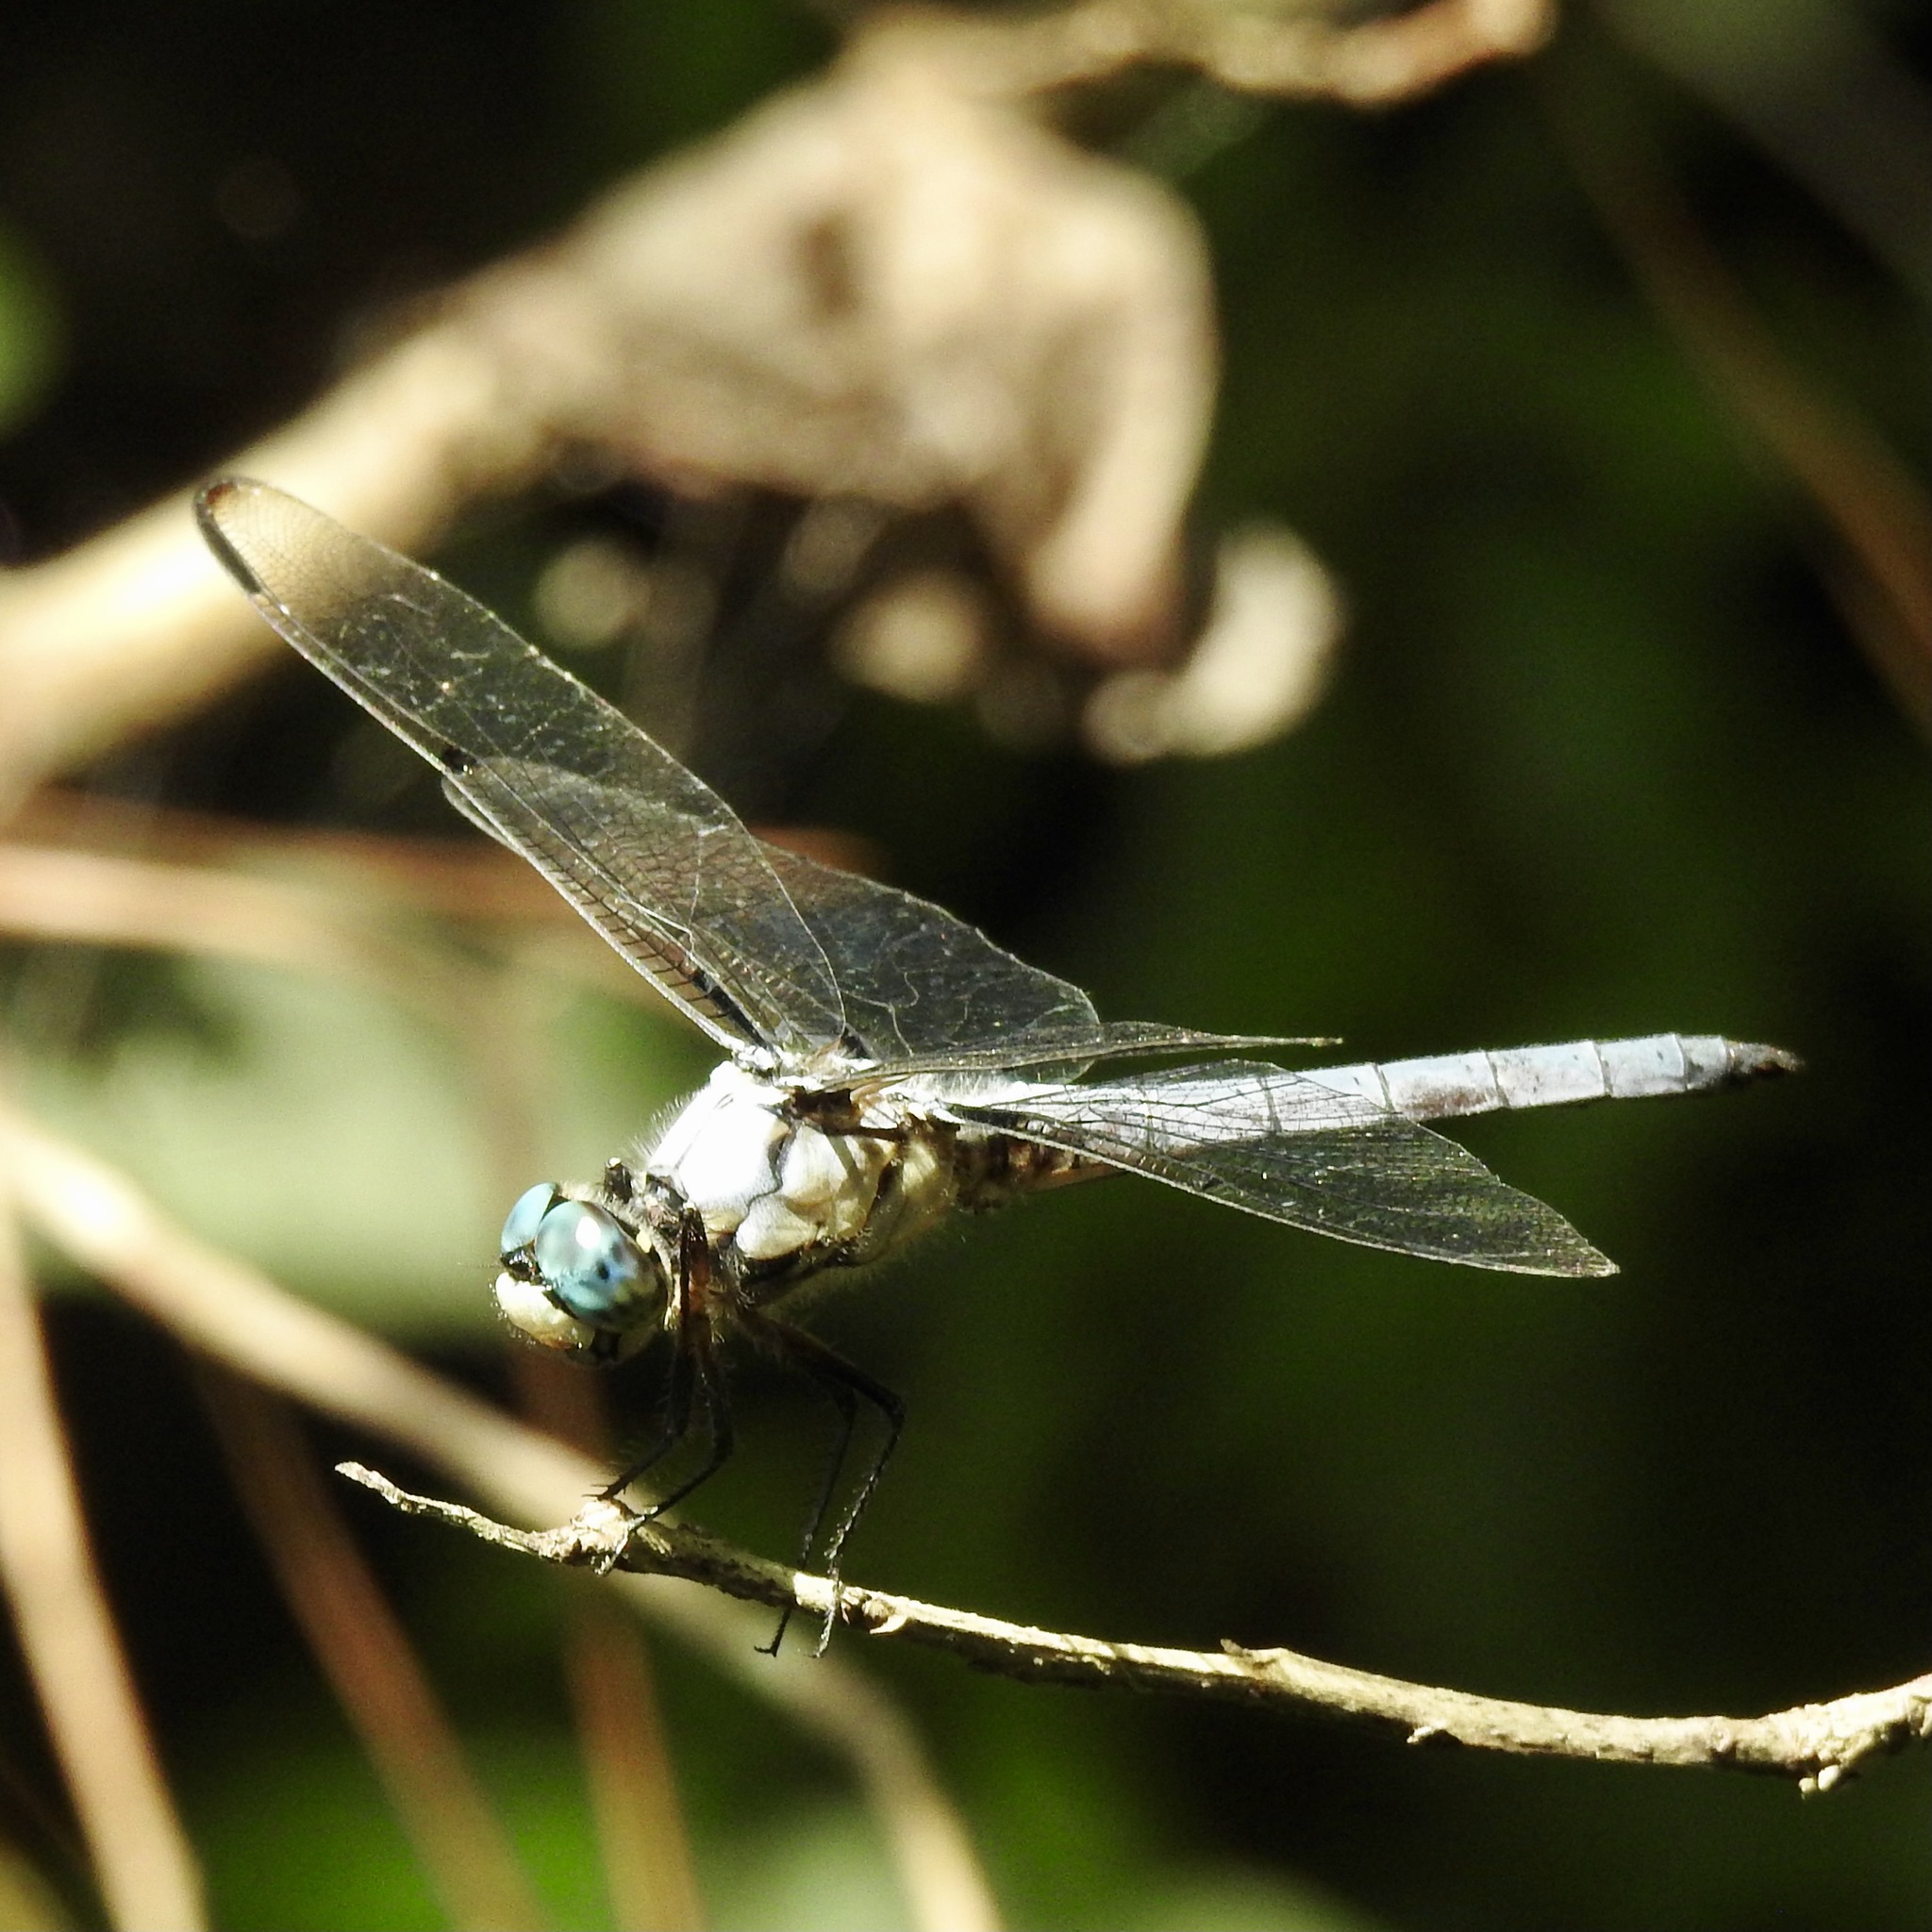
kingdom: Animalia
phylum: Arthropoda
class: Insecta
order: Odonata
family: Libellulidae
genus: Libellula
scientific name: Libellula vibrans
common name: Great blue skimmer
